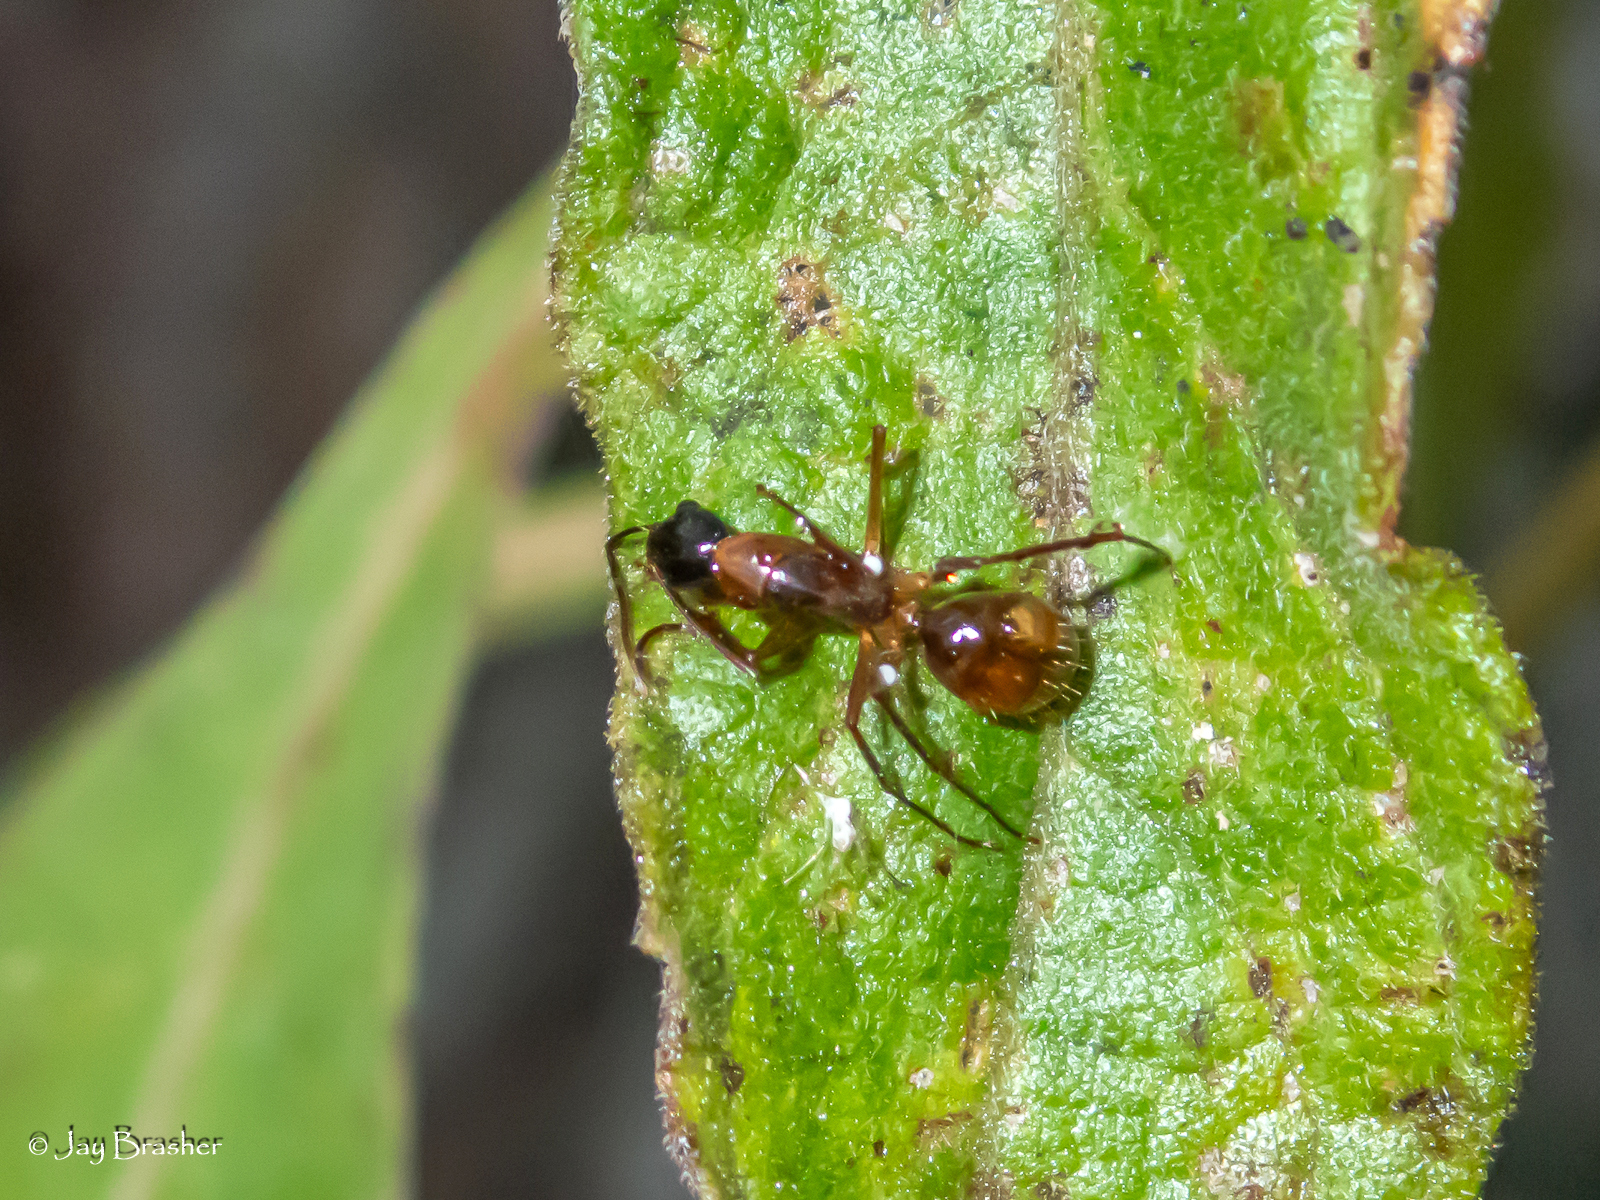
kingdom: Animalia
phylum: Arthropoda
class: Insecta
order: Hymenoptera
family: Formicidae
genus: Camponotus
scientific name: Camponotus americanus
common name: American carpenter ant
